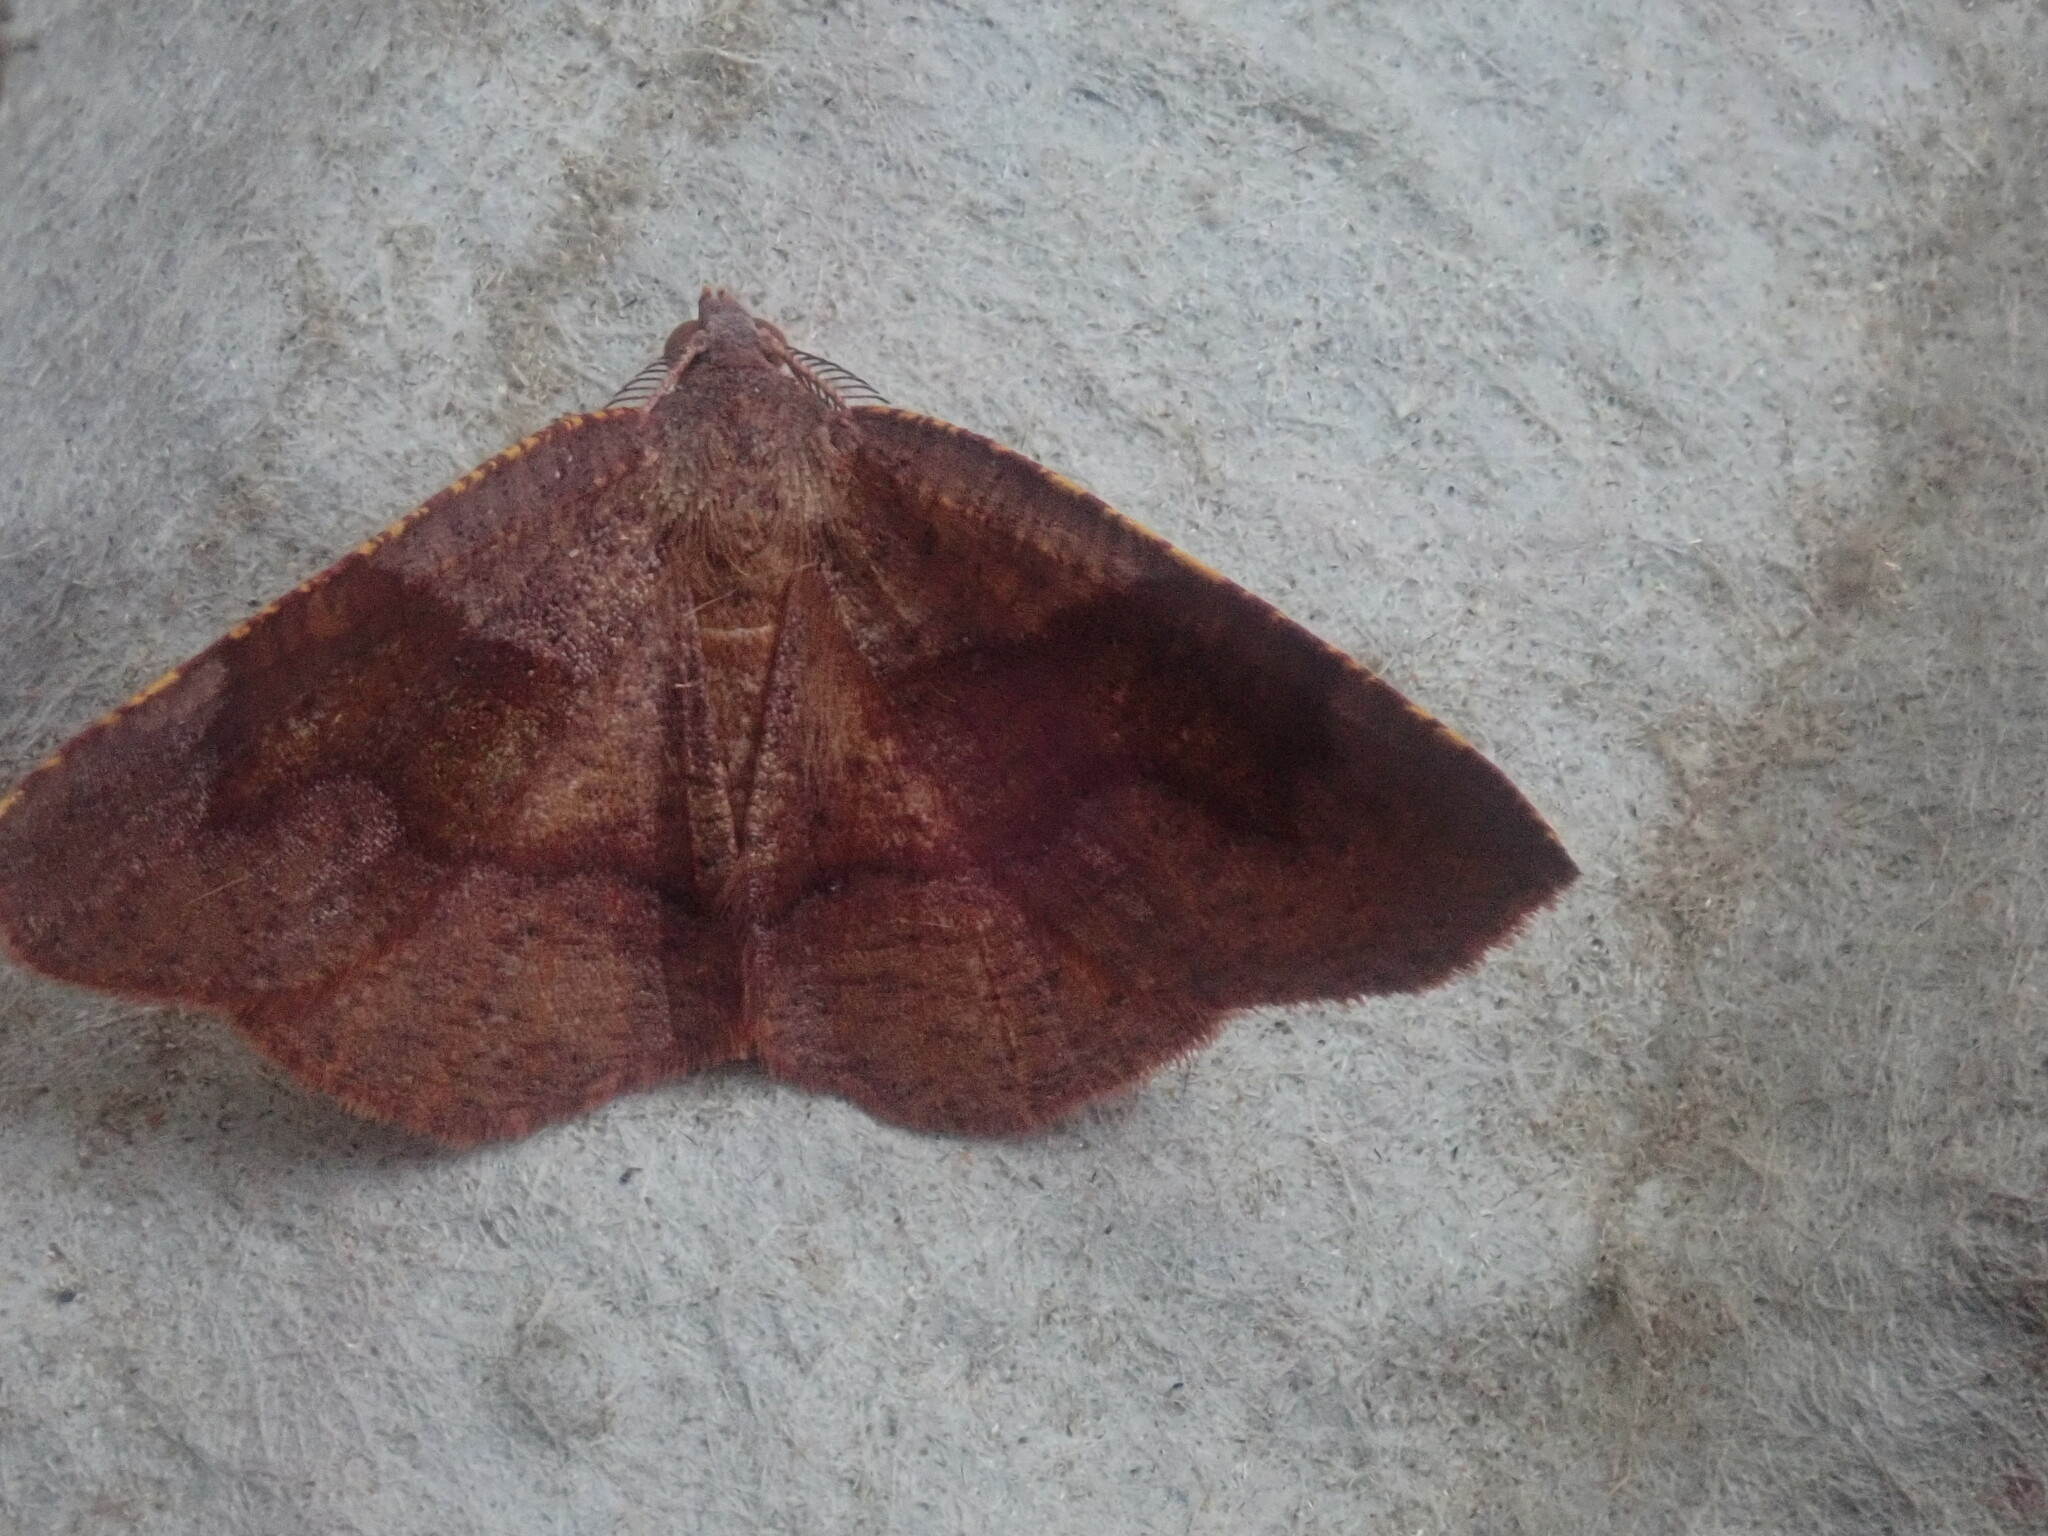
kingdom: Animalia
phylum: Arthropoda
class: Insecta
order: Lepidoptera
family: Geometridae
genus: Plagodis
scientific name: Plagodis pulveraria
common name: Barred umber
